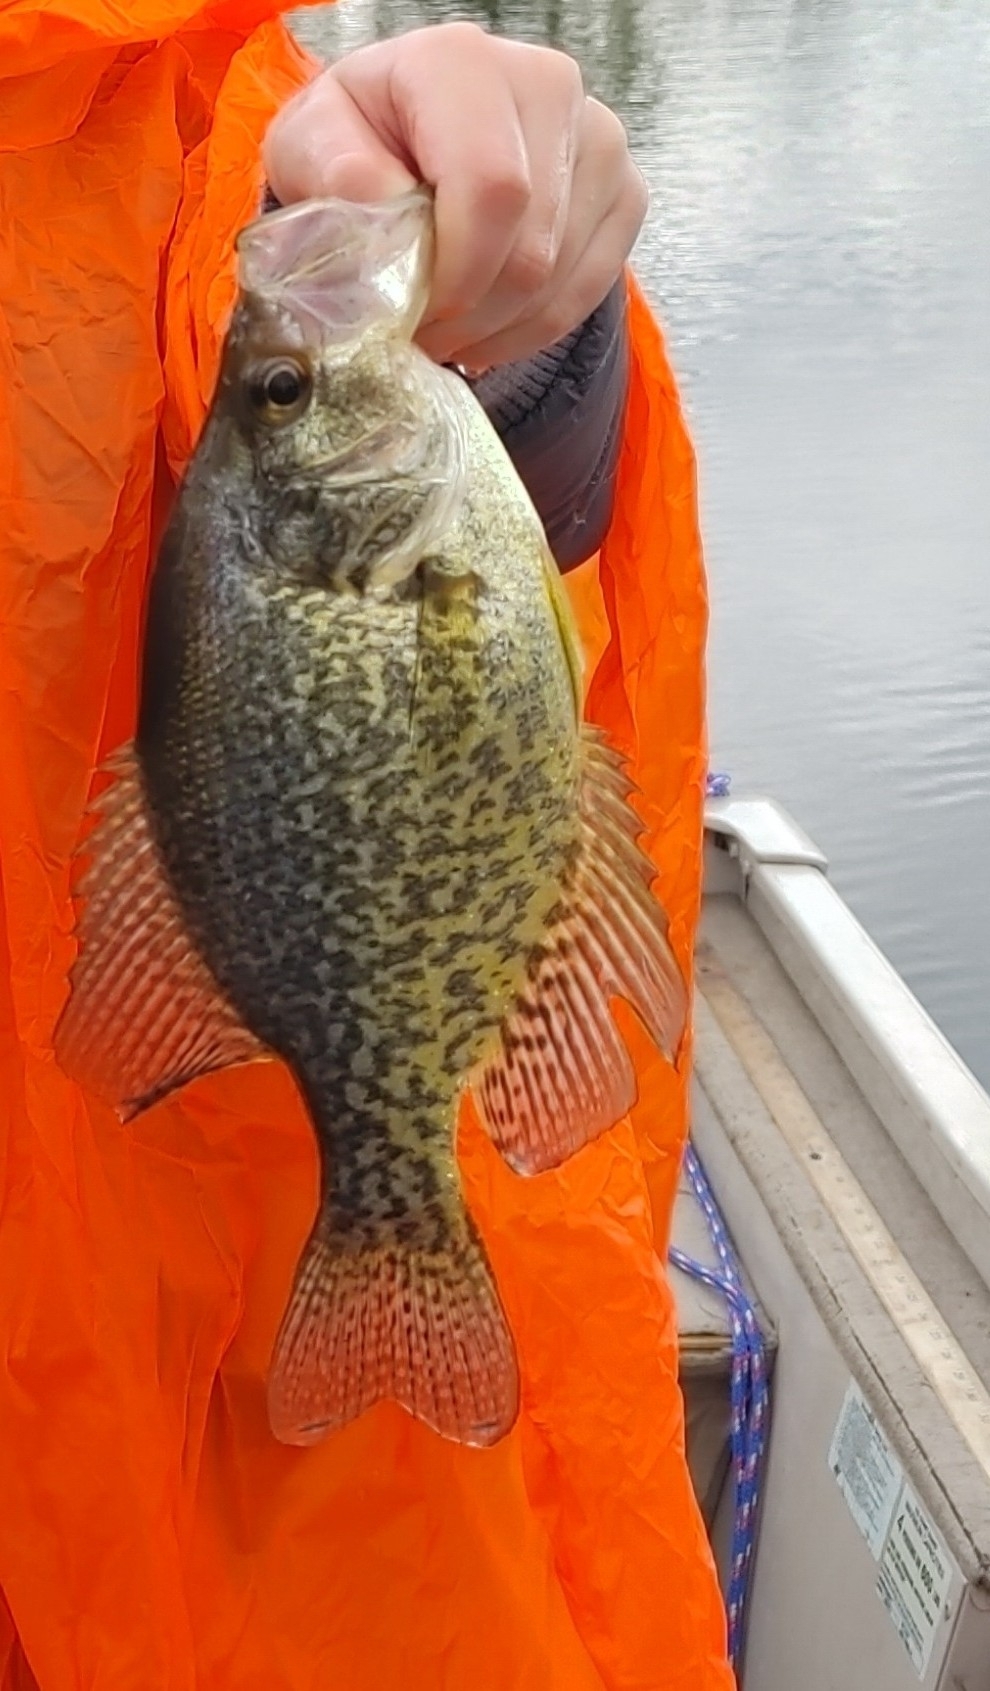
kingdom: Animalia
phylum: Chordata
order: Perciformes
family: Centrarchidae
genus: Pomoxis
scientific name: Pomoxis nigromaculatus
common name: Black crappie
